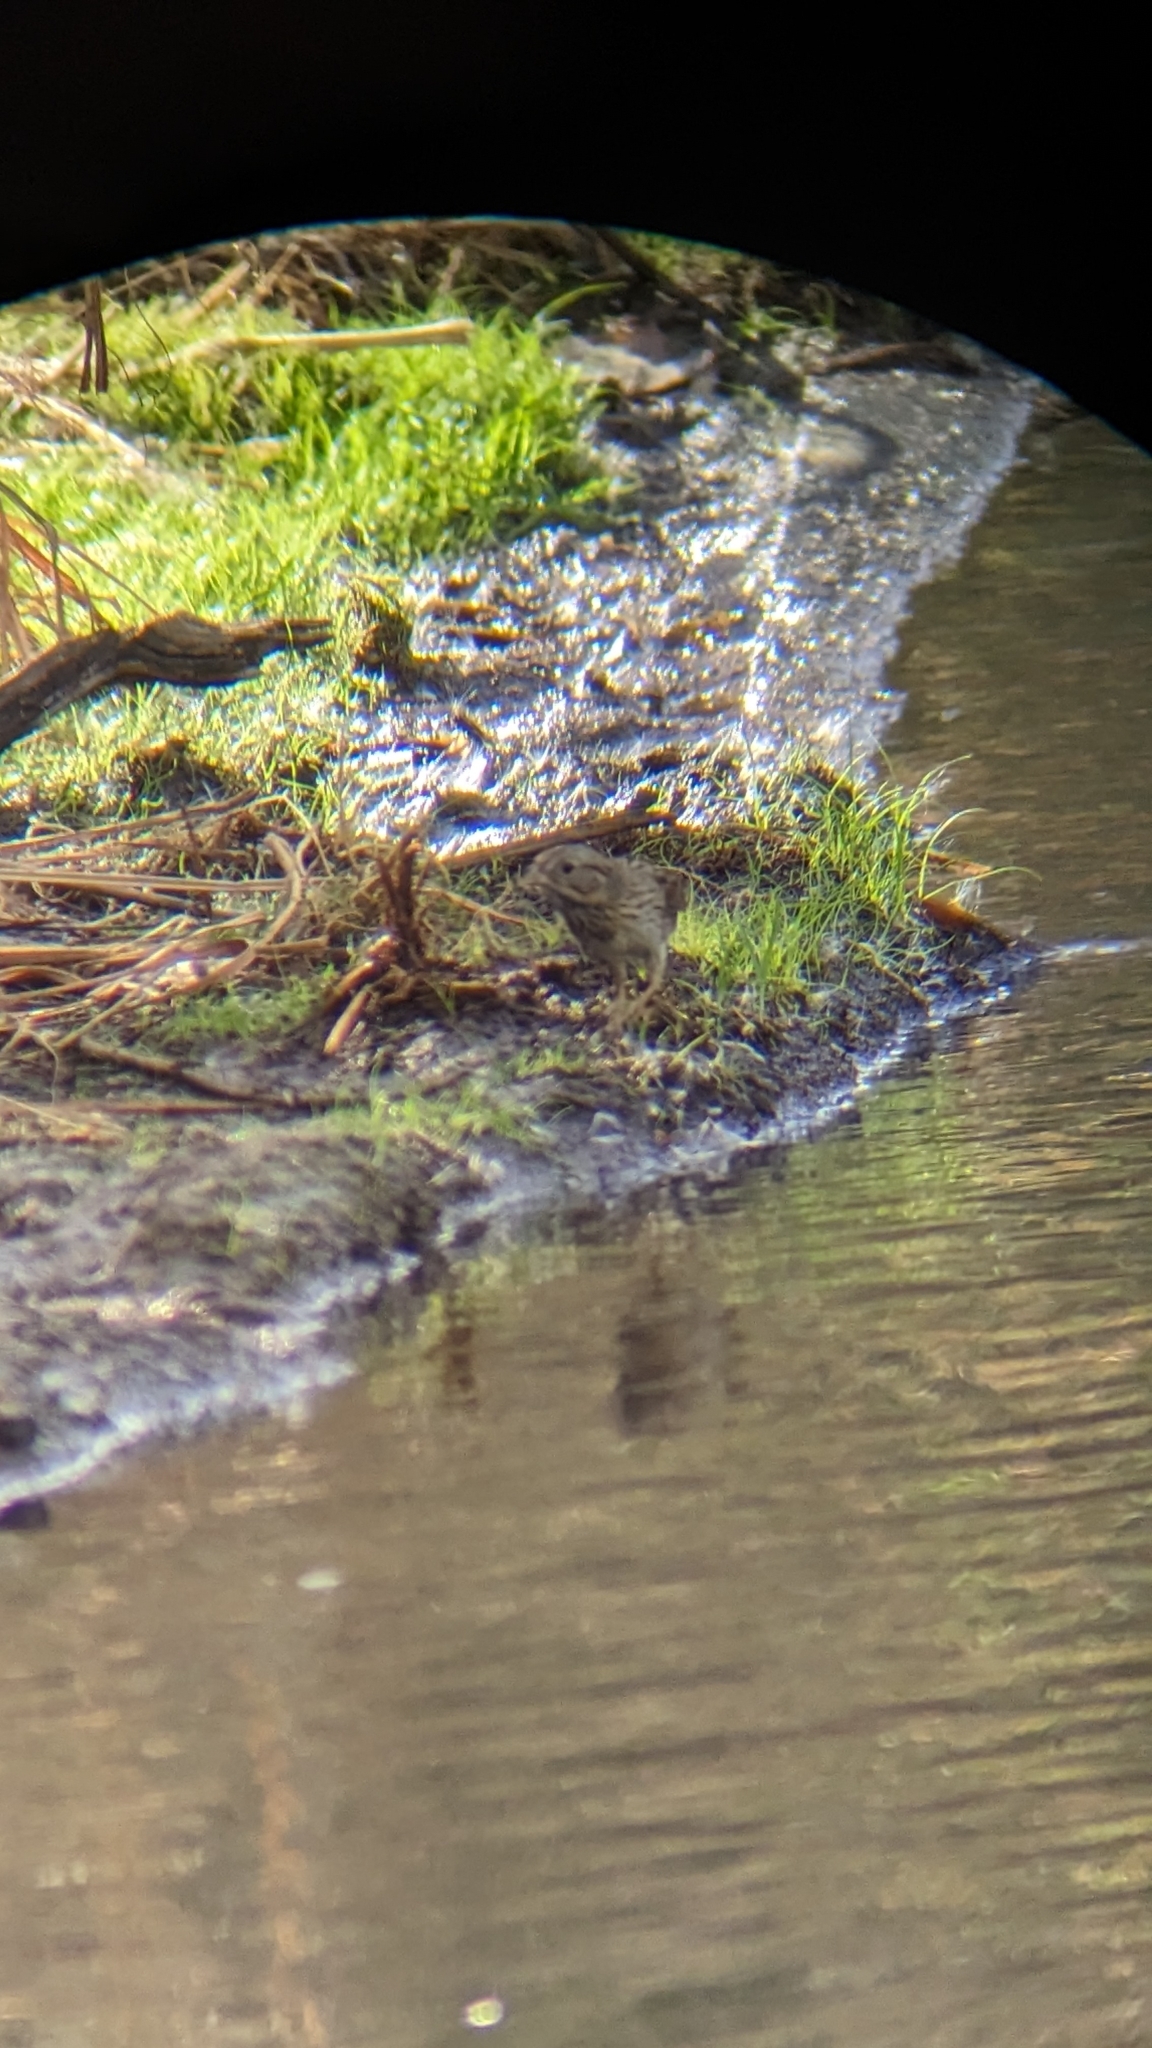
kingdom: Animalia
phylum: Chordata
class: Aves
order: Passeriformes
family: Passerellidae
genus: Melospiza
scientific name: Melospiza lincolnii
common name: Lincoln's sparrow
